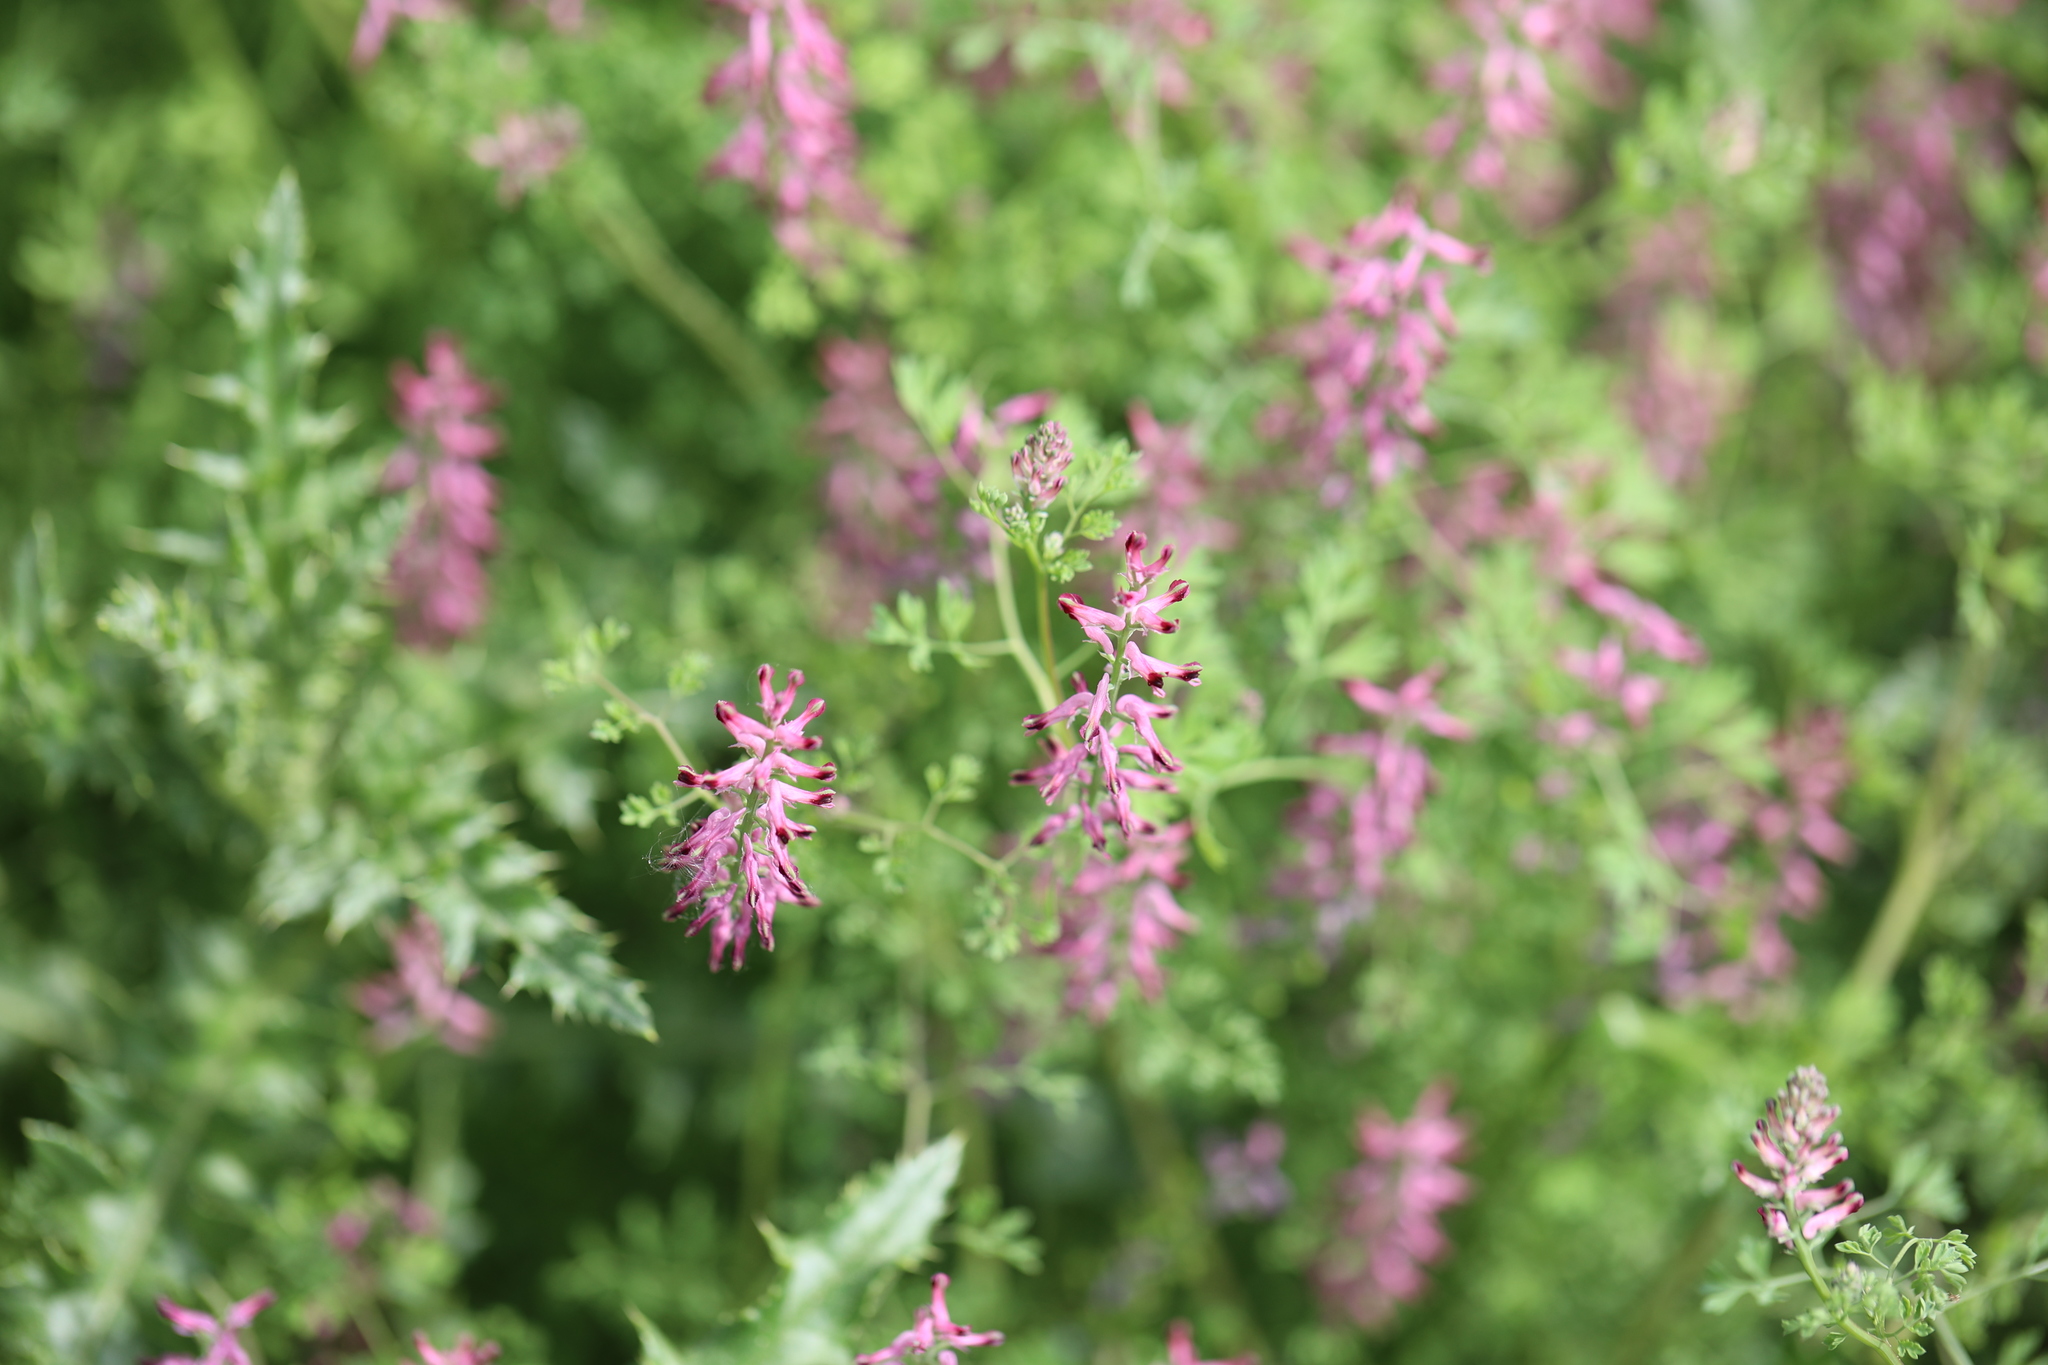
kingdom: Plantae
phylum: Tracheophyta
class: Magnoliopsida
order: Ranunculales
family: Papaveraceae
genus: Fumaria
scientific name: Fumaria officinalis
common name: Common fumitory
